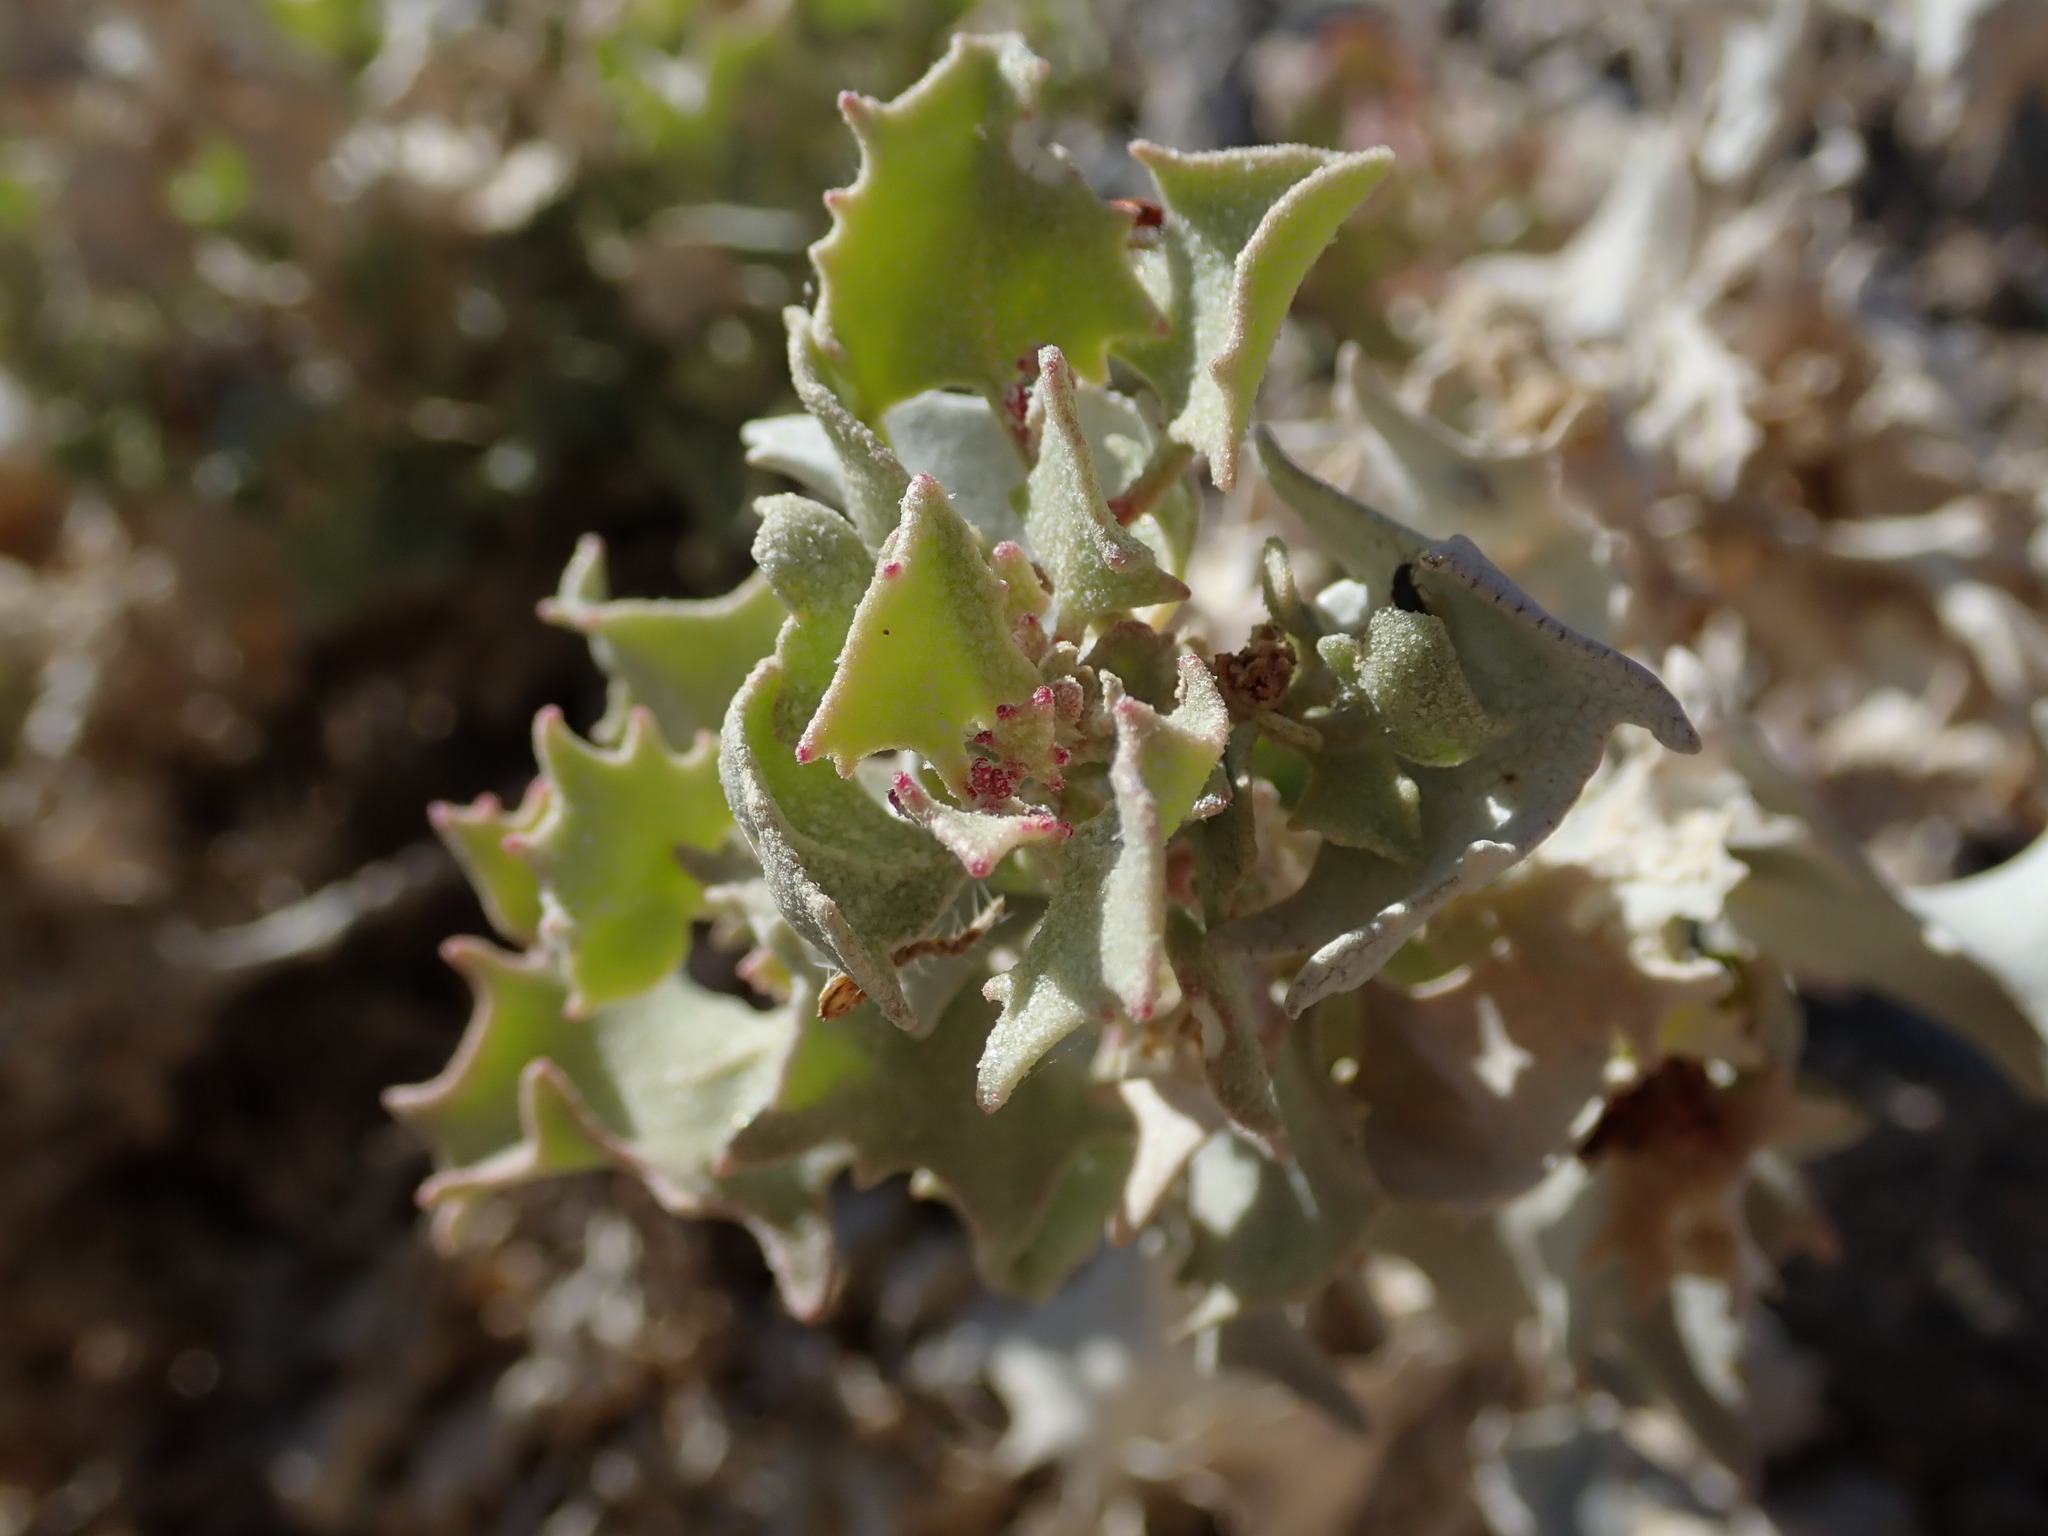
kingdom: Plantae
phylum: Tracheophyta
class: Magnoliopsida
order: Caryophyllales
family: Amaranthaceae
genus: Atriplex
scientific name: Atriplex hymenelytra
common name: Desert-holly
